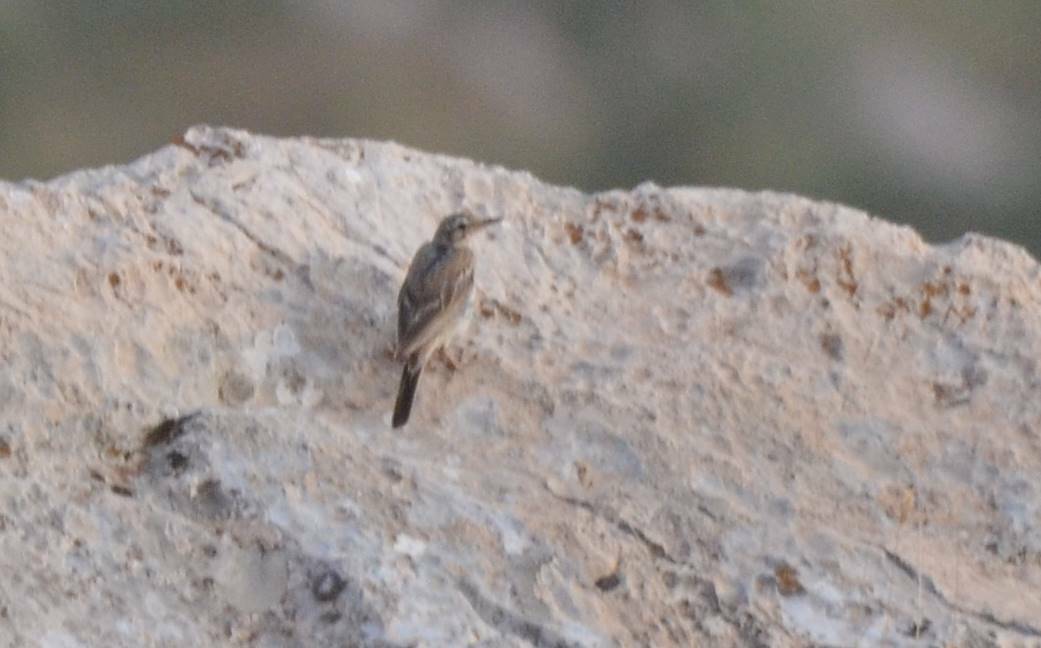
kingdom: Animalia
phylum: Chordata
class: Aves
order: Passeriformes
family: Motacillidae
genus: Anthus
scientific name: Anthus campestris
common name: Tawny pipit
